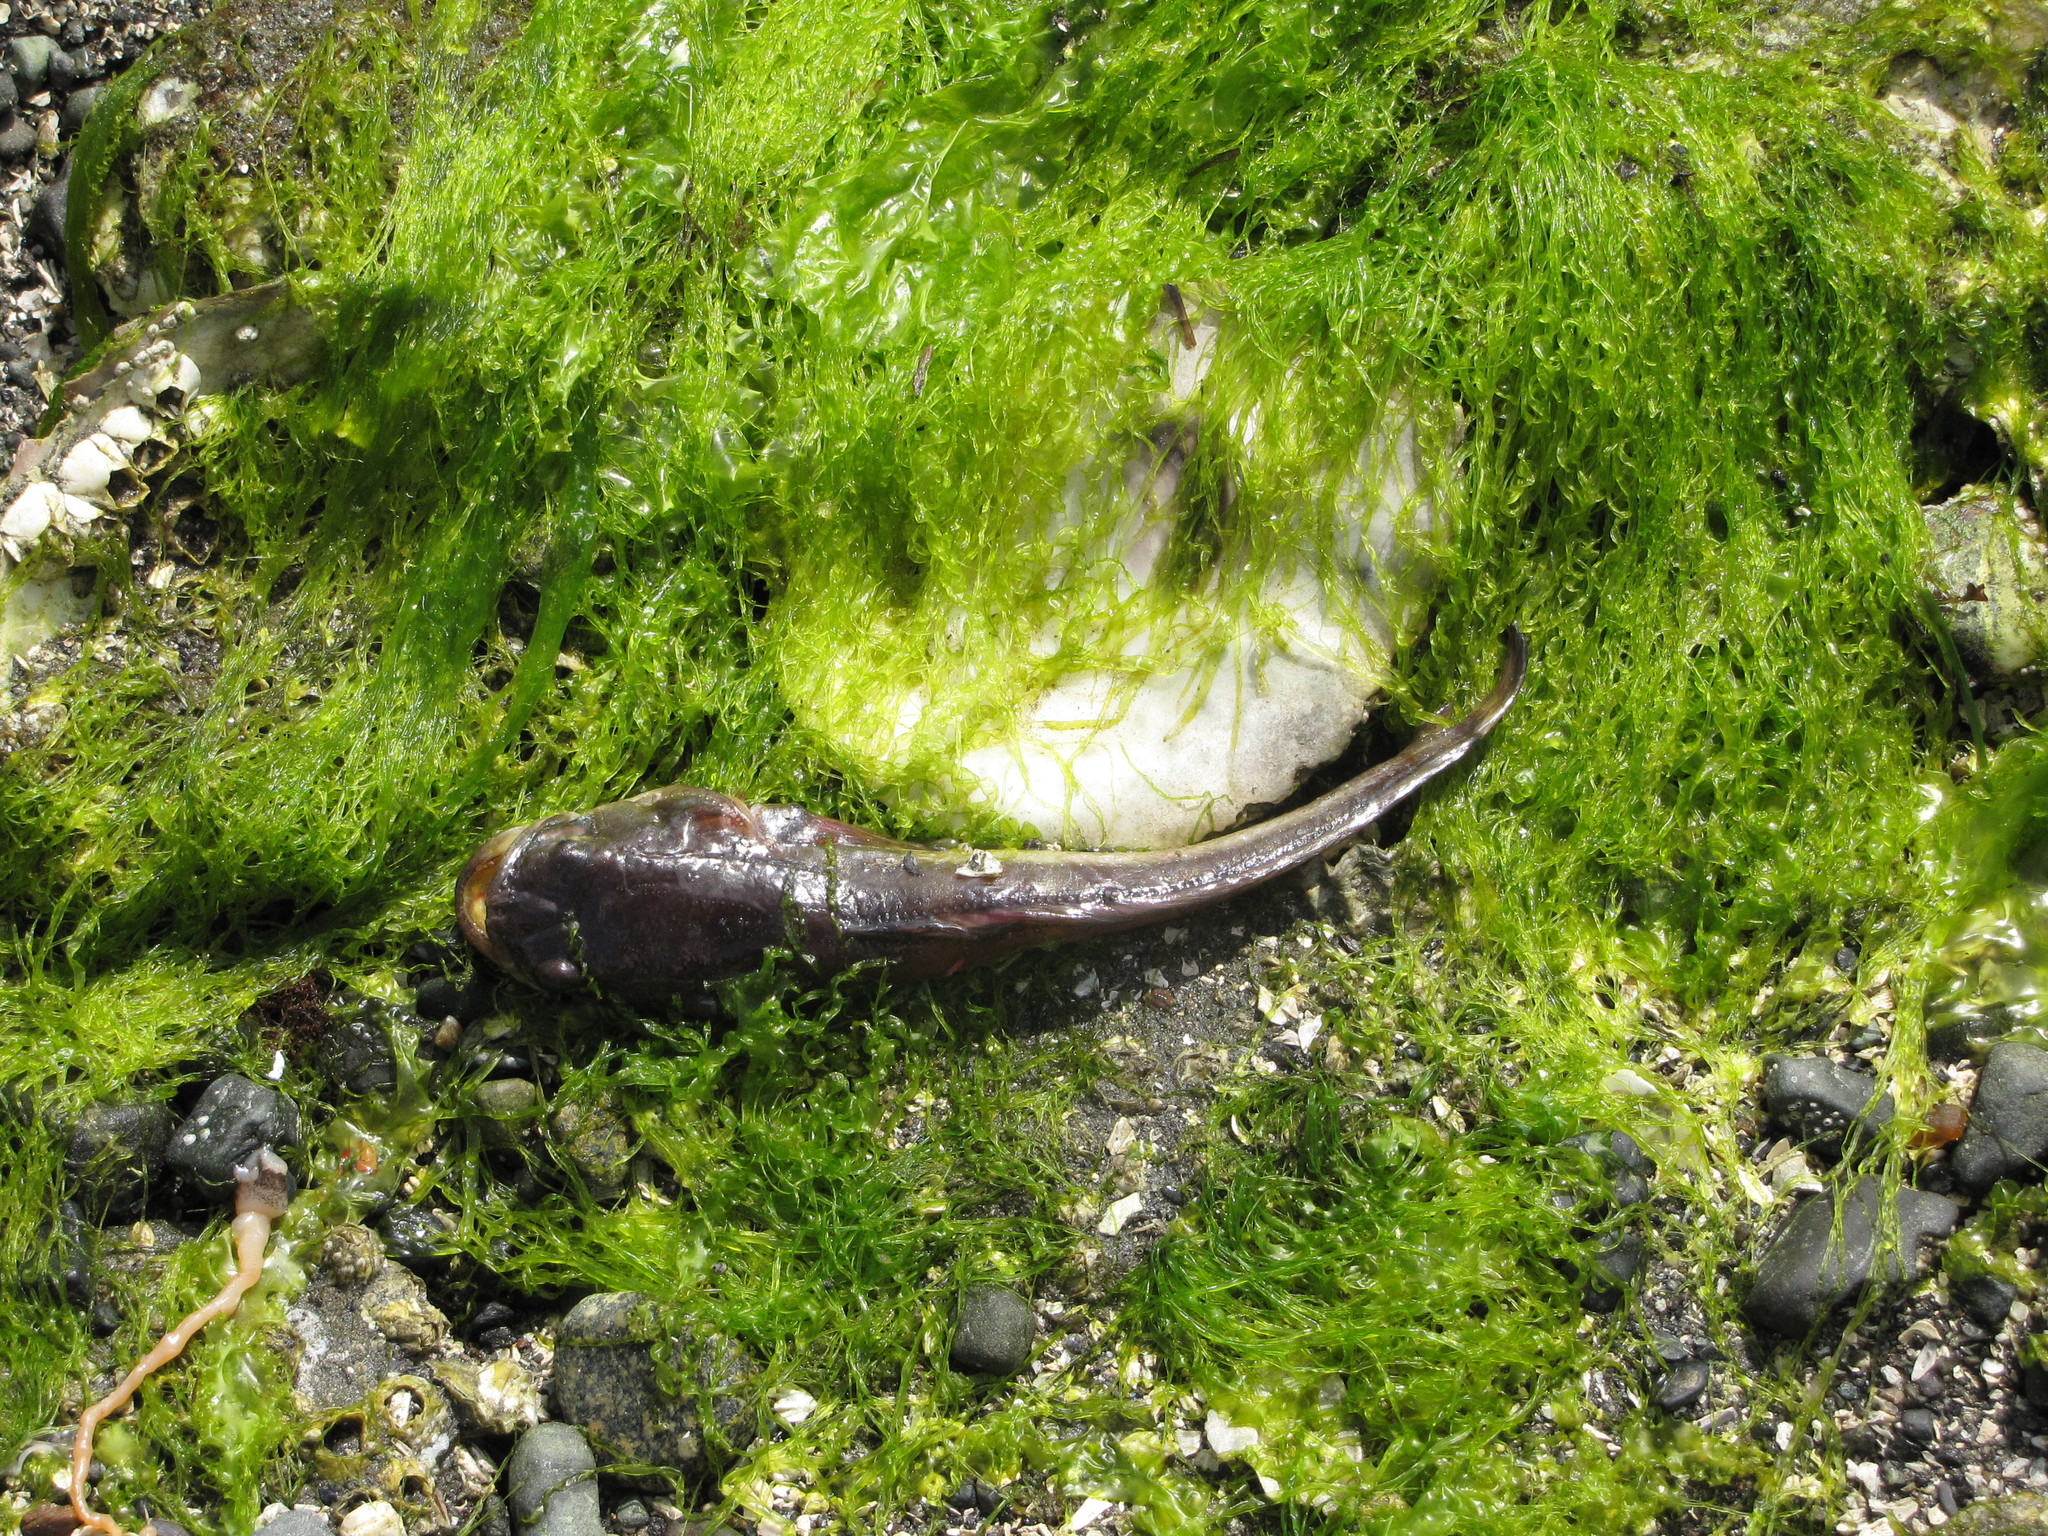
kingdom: Animalia
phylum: Chordata
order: Batrachoidiformes
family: Batrachoididae
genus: Porichthys
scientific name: Porichthys notatus
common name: Plainfin midshipman
